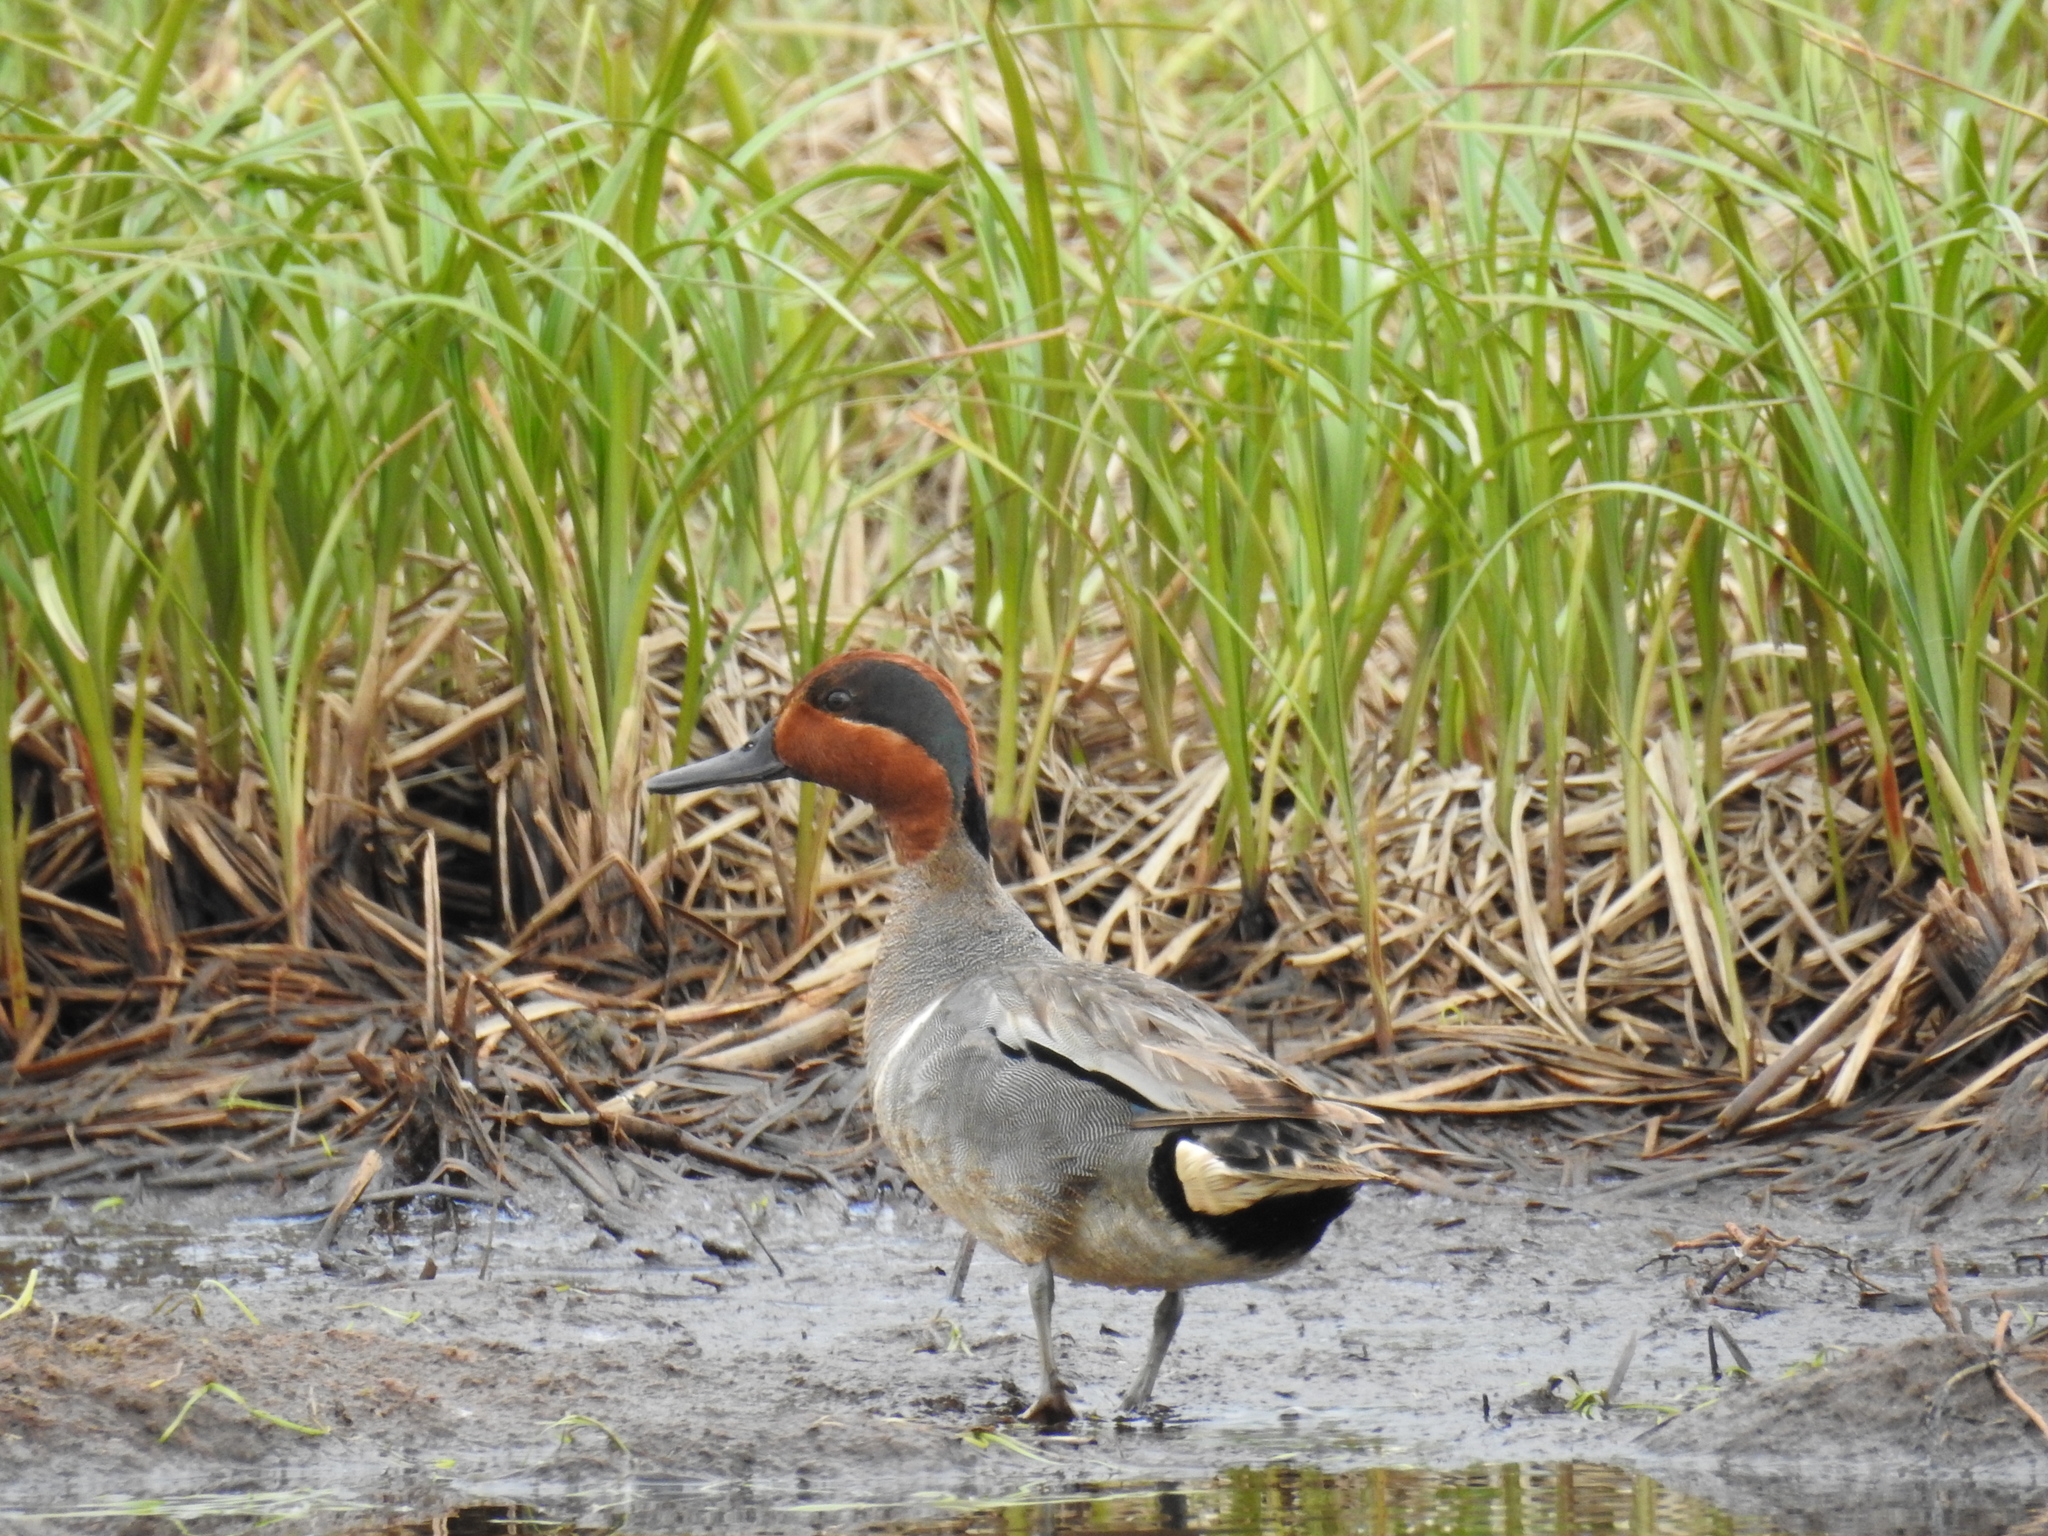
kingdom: Animalia
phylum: Chordata
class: Aves
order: Anseriformes
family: Anatidae
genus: Anas
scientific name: Anas crecca
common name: Eurasian teal
